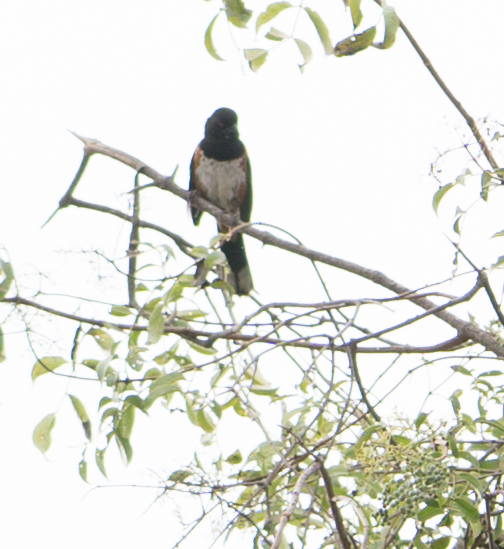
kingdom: Animalia
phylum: Chordata
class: Aves
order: Passeriformes
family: Passerellidae
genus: Pipilo
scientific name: Pipilo maculatus
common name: Spotted towhee
